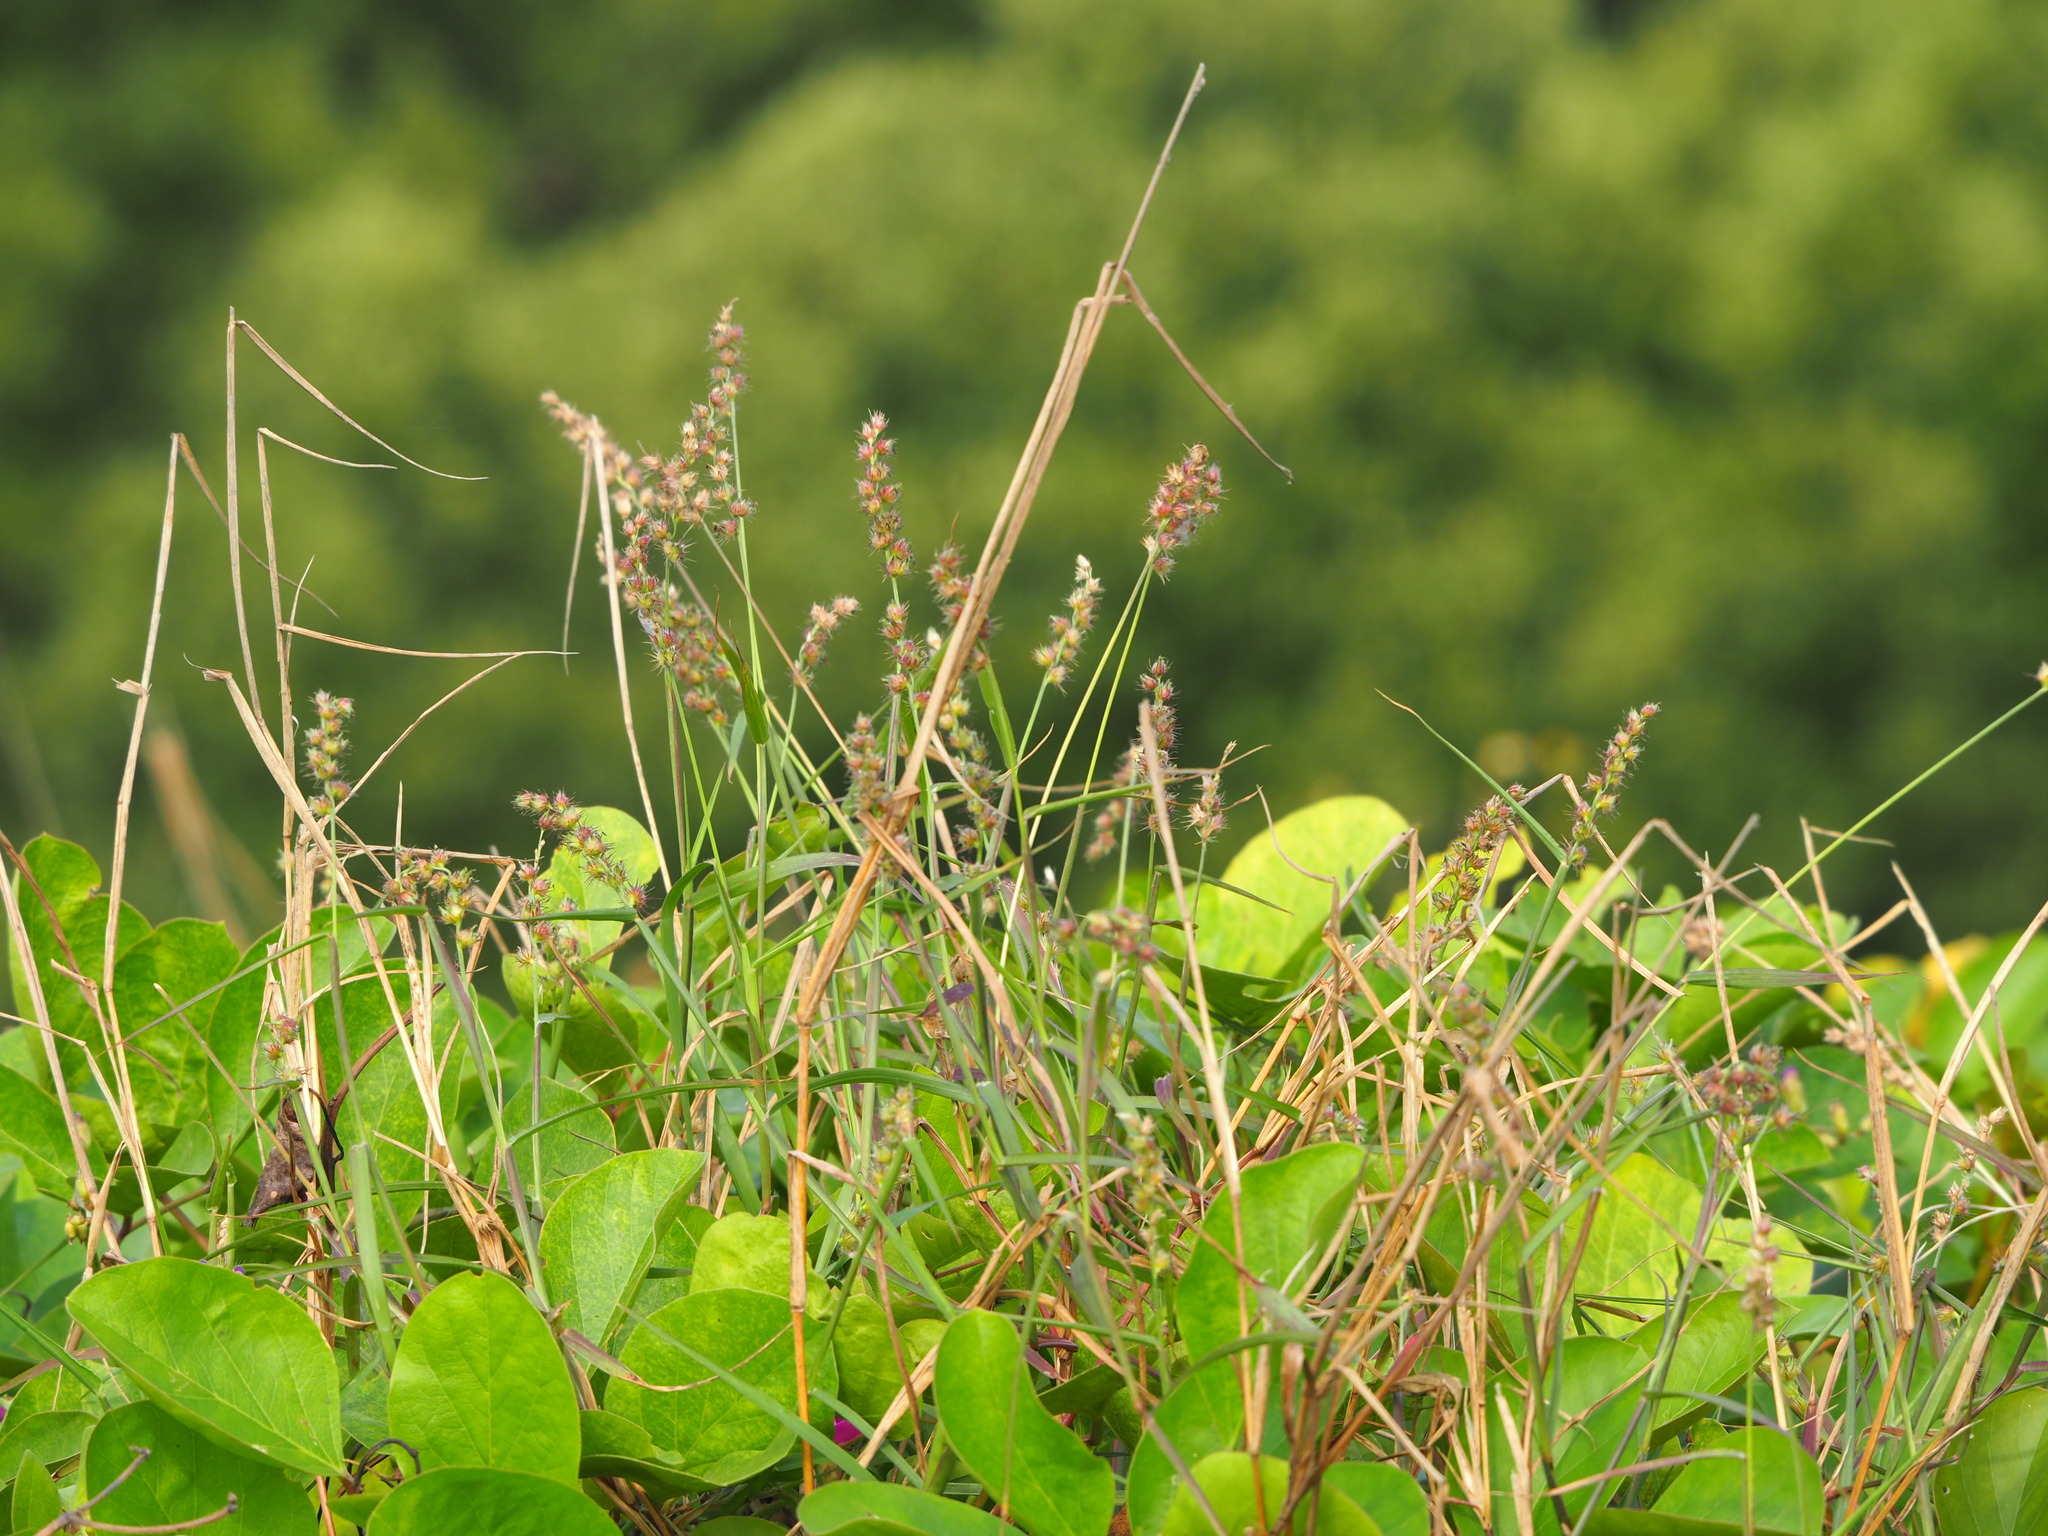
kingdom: Plantae
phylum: Tracheophyta
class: Liliopsida
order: Poales
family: Poaceae
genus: Cenchrus
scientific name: Cenchrus echinatus
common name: Southern sandbur
